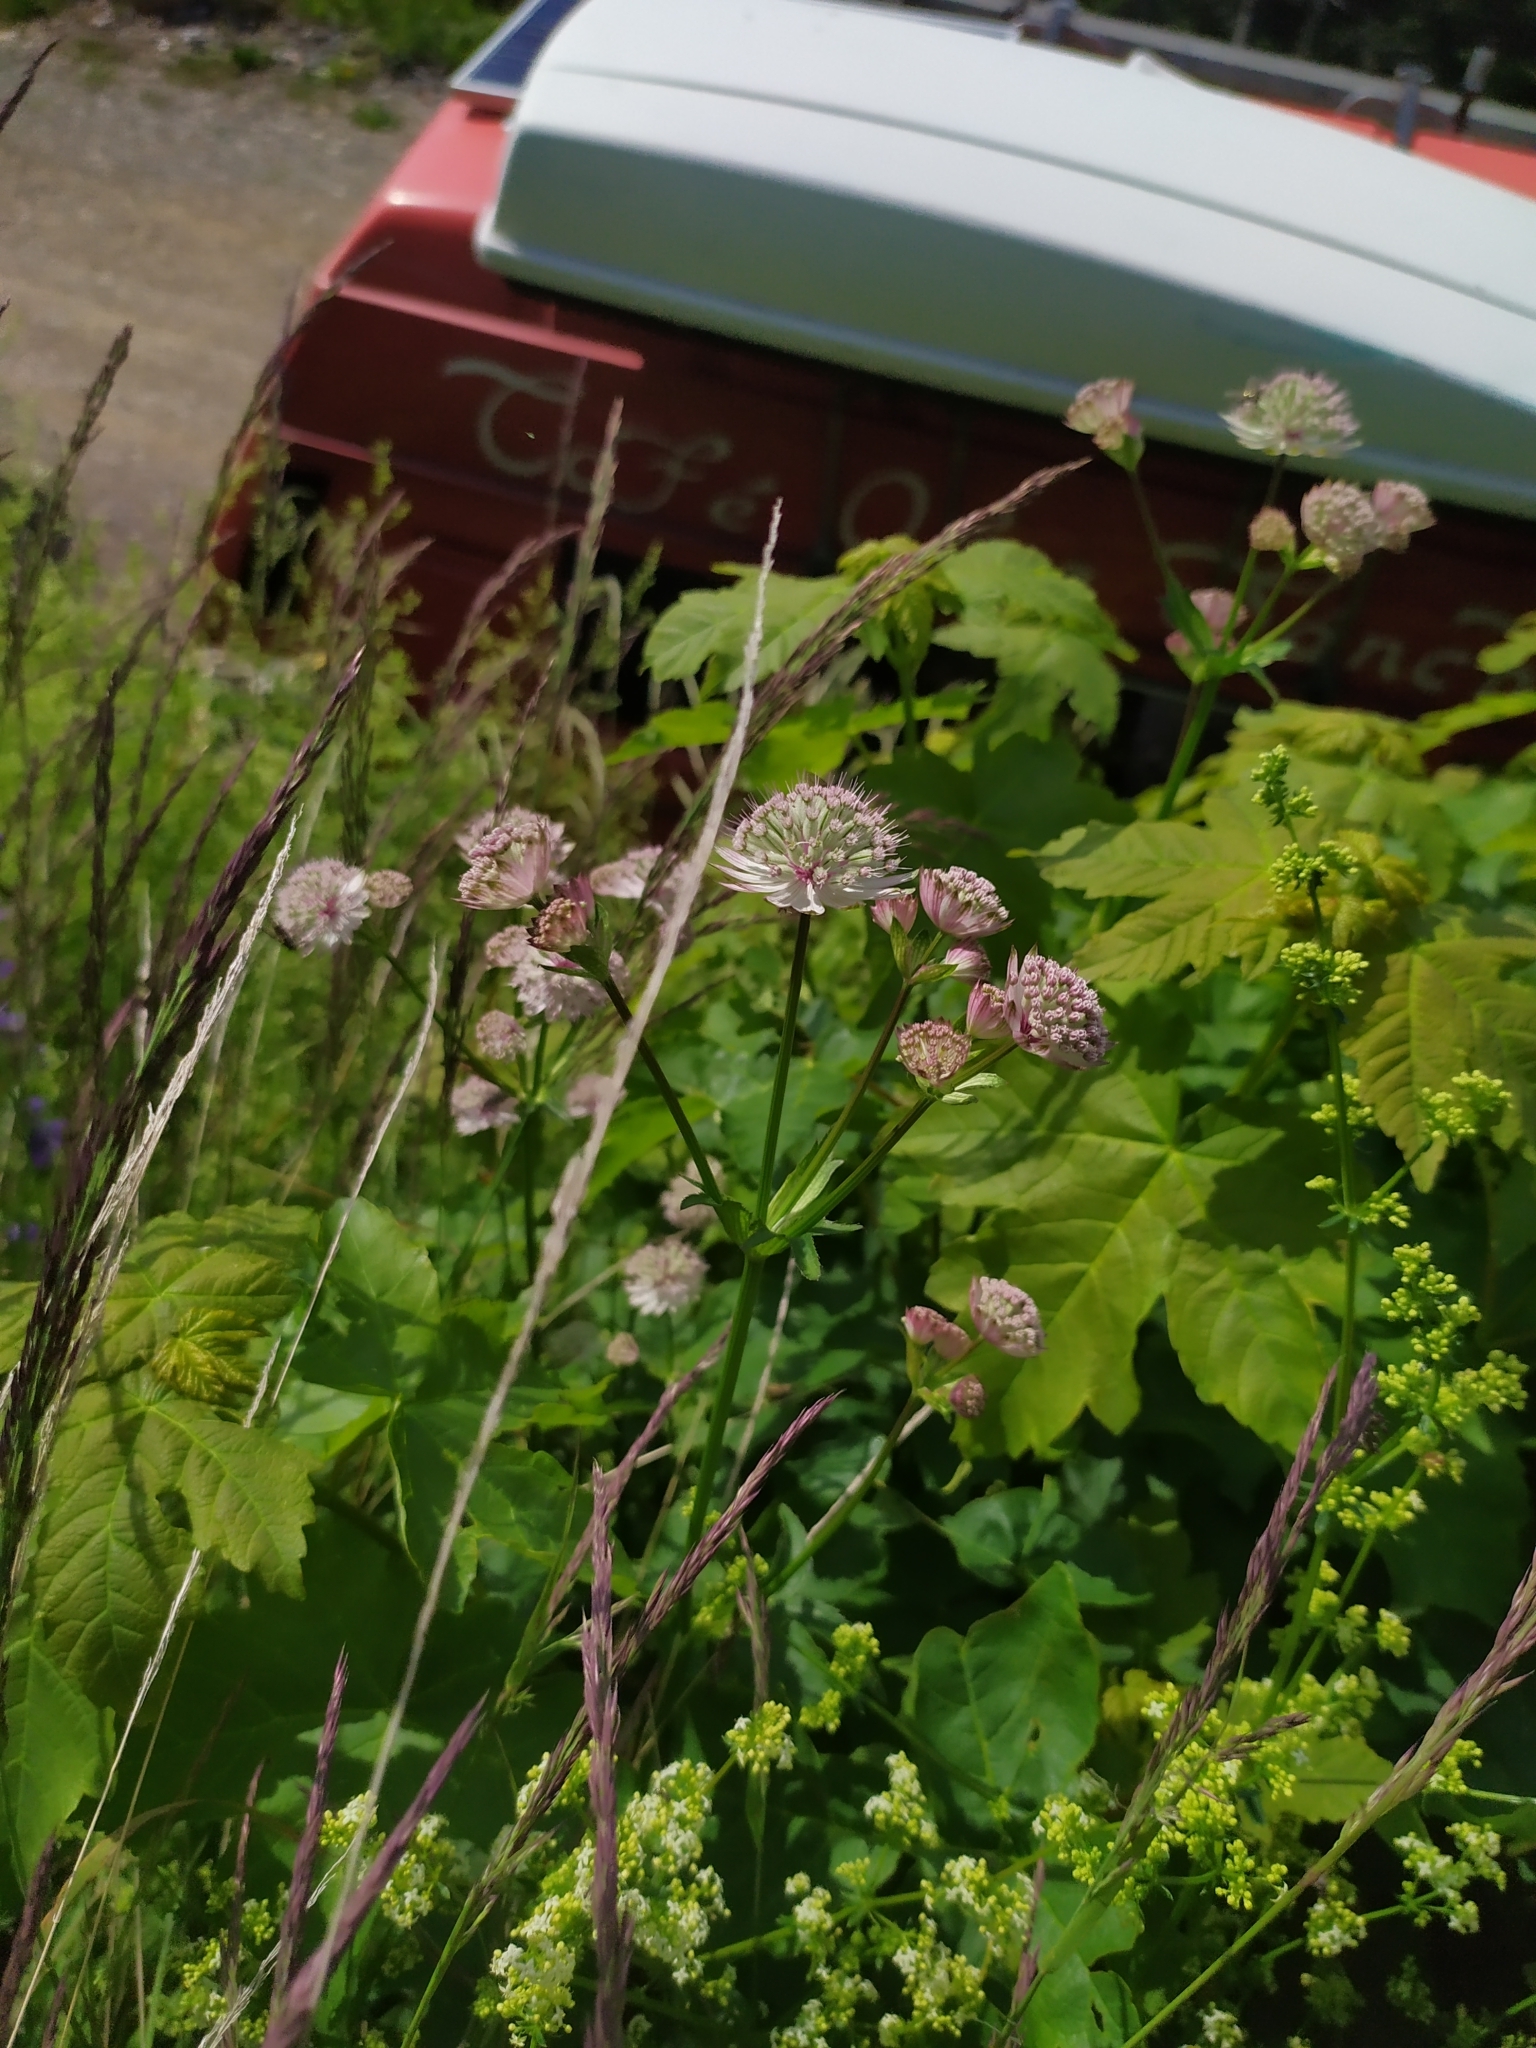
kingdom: Plantae
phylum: Tracheophyta
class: Magnoliopsida
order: Apiales
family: Apiaceae
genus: Astrantia
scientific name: Astrantia major
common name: Greater masterwort
